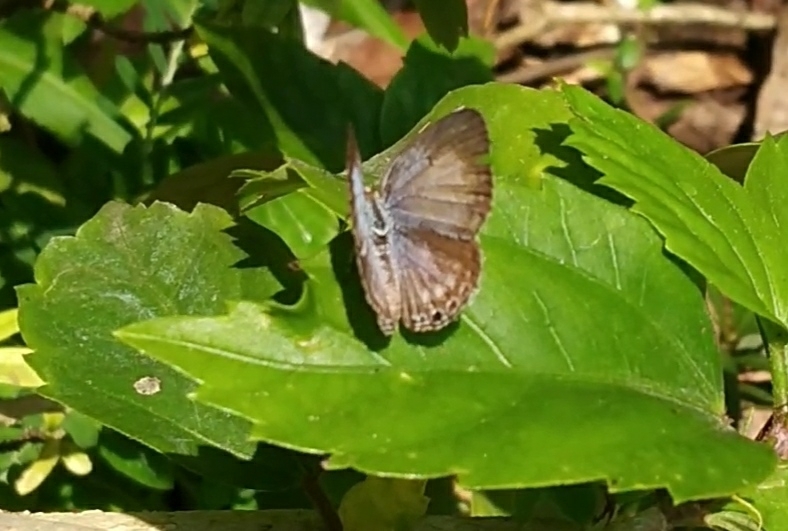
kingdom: Animalia
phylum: Arthropoda
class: Insecta
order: Lepidoptera
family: Lycaenidae
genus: Chilades
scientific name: Chilades laius
